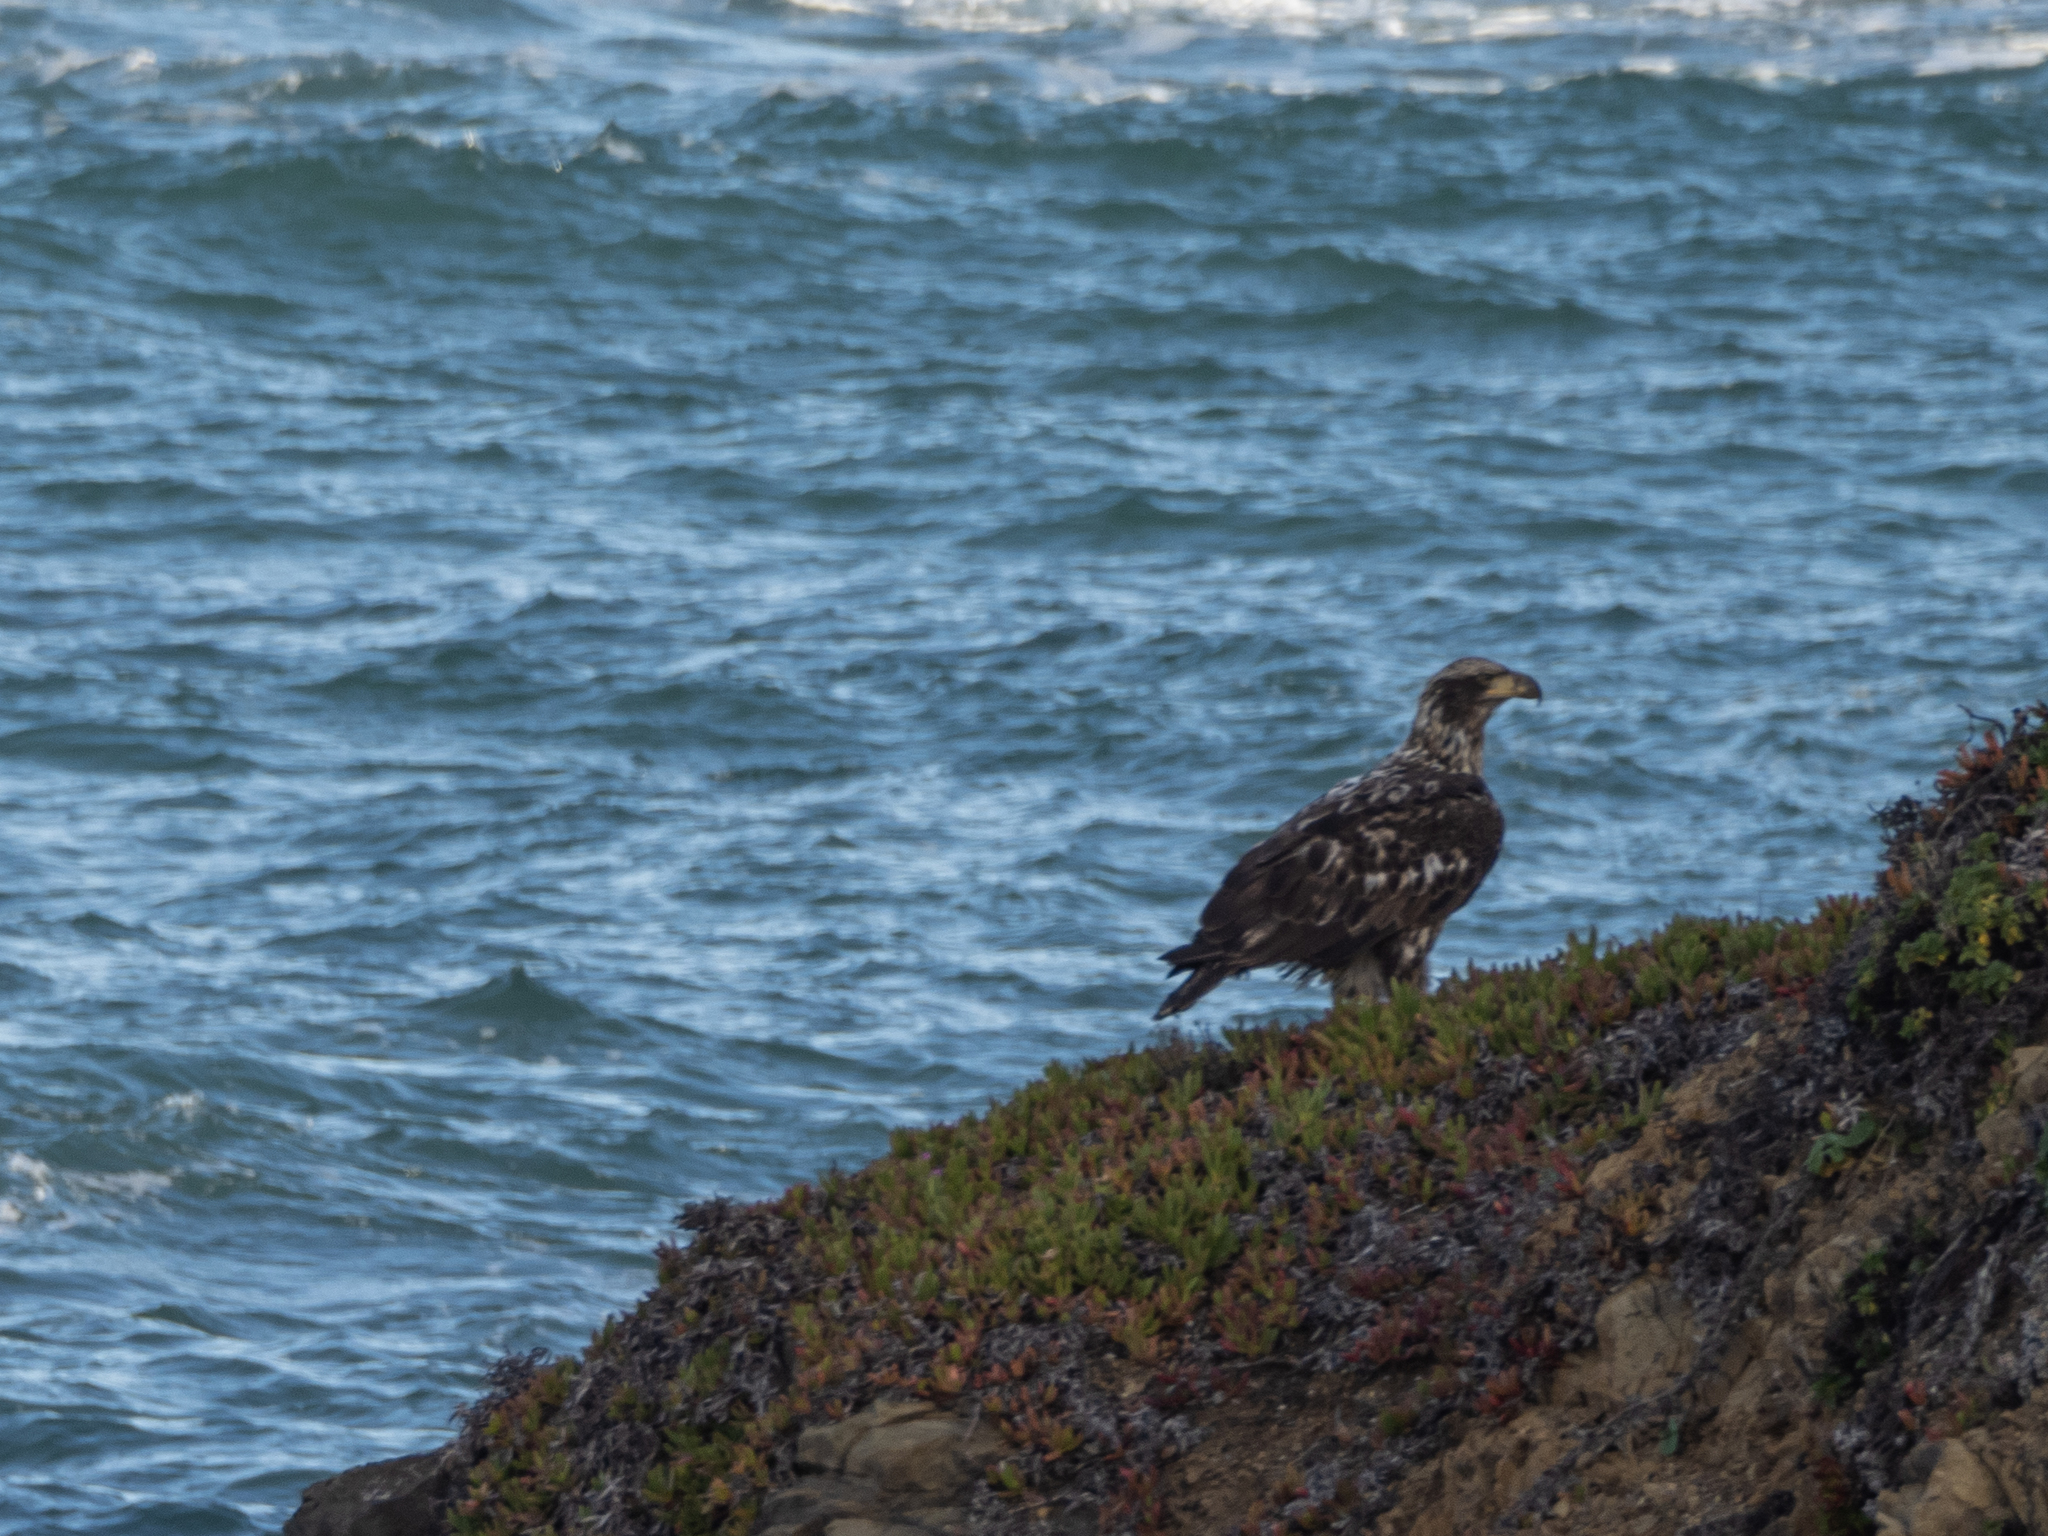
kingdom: Animalia
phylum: Chordata
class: Aves
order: Accipitriformes
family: Accipitridae
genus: Haliaeetus
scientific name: Haliaeetus leucocephalus
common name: Bald eagle
